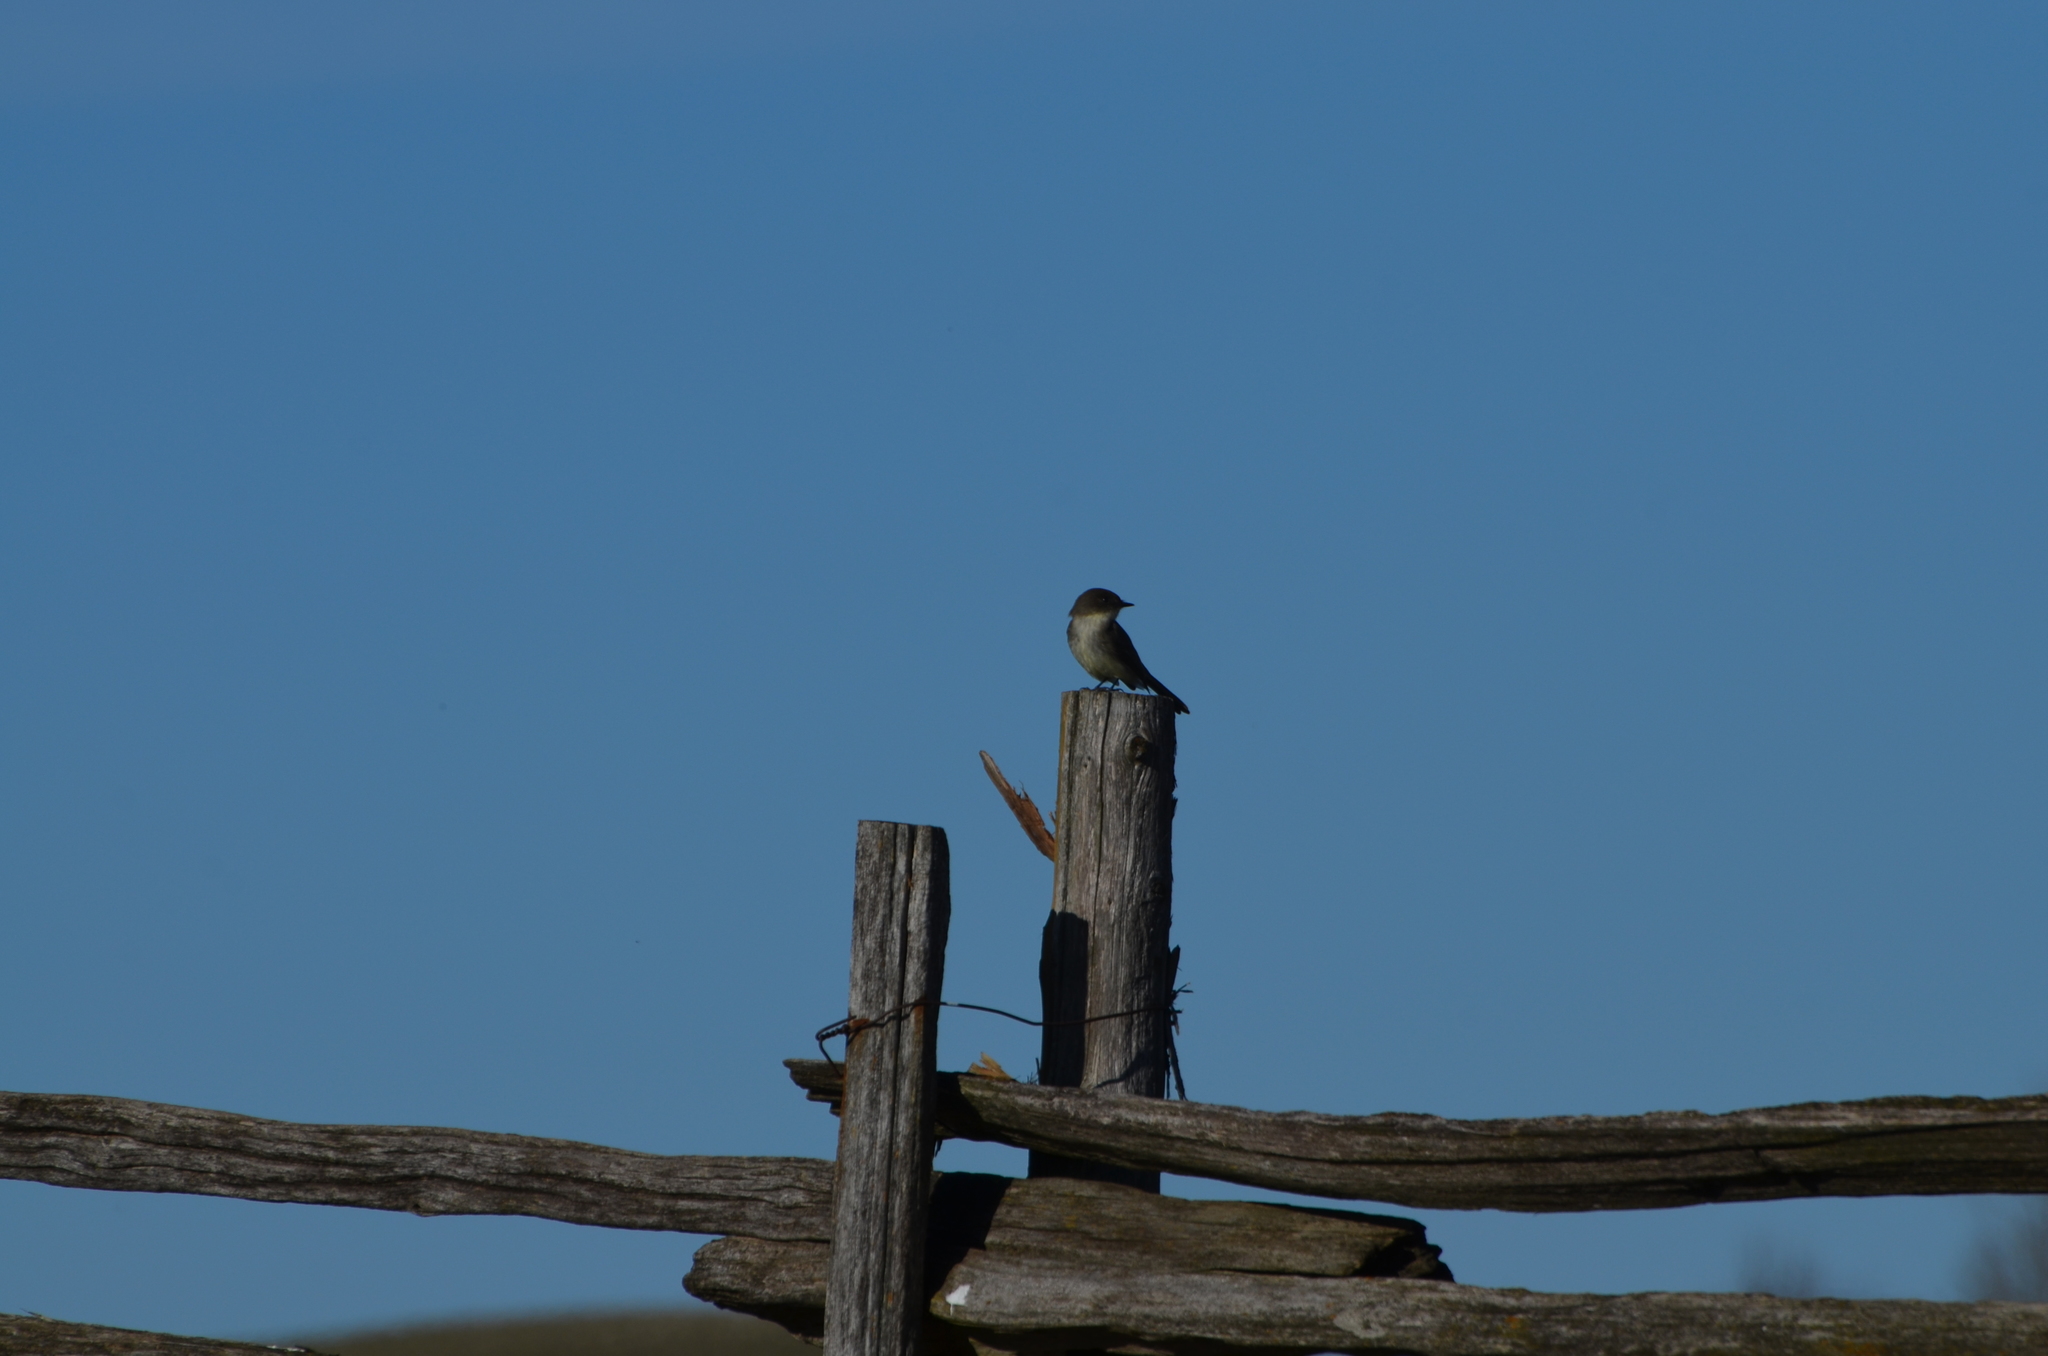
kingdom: Animalia
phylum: Chordata
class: Aves
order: Passeriformes
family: Tyrannidae
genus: Sayornis
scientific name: Sayornis phoebe
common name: Eastern phoebe
